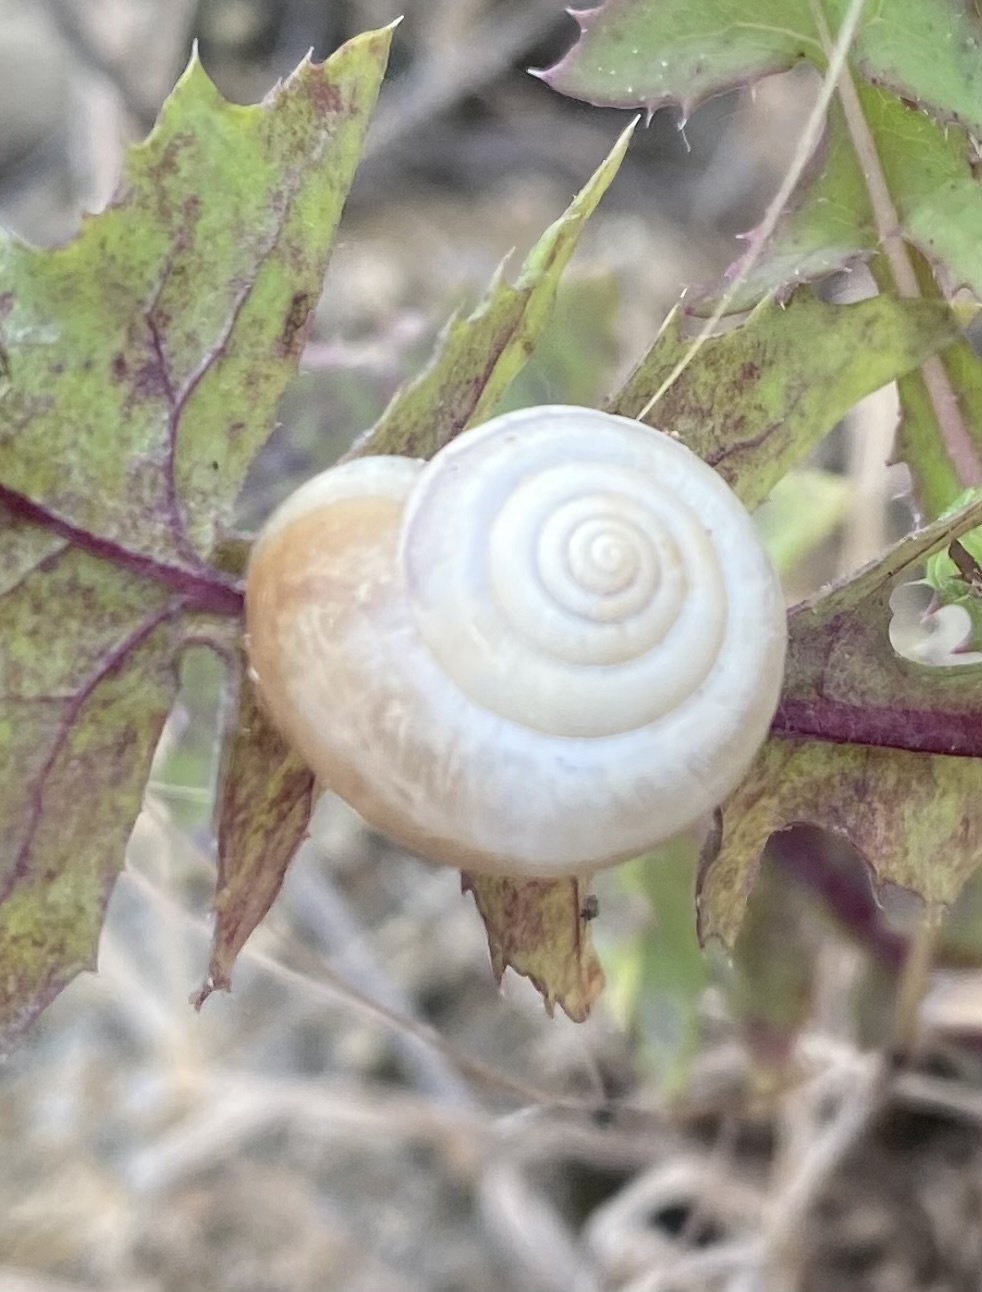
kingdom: Animalia
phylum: Mollusca
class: Gastropoda
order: Stylommatophora
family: Hygromiidae
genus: Monacha
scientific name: Monacha cartusiana
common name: Carthusian snail
